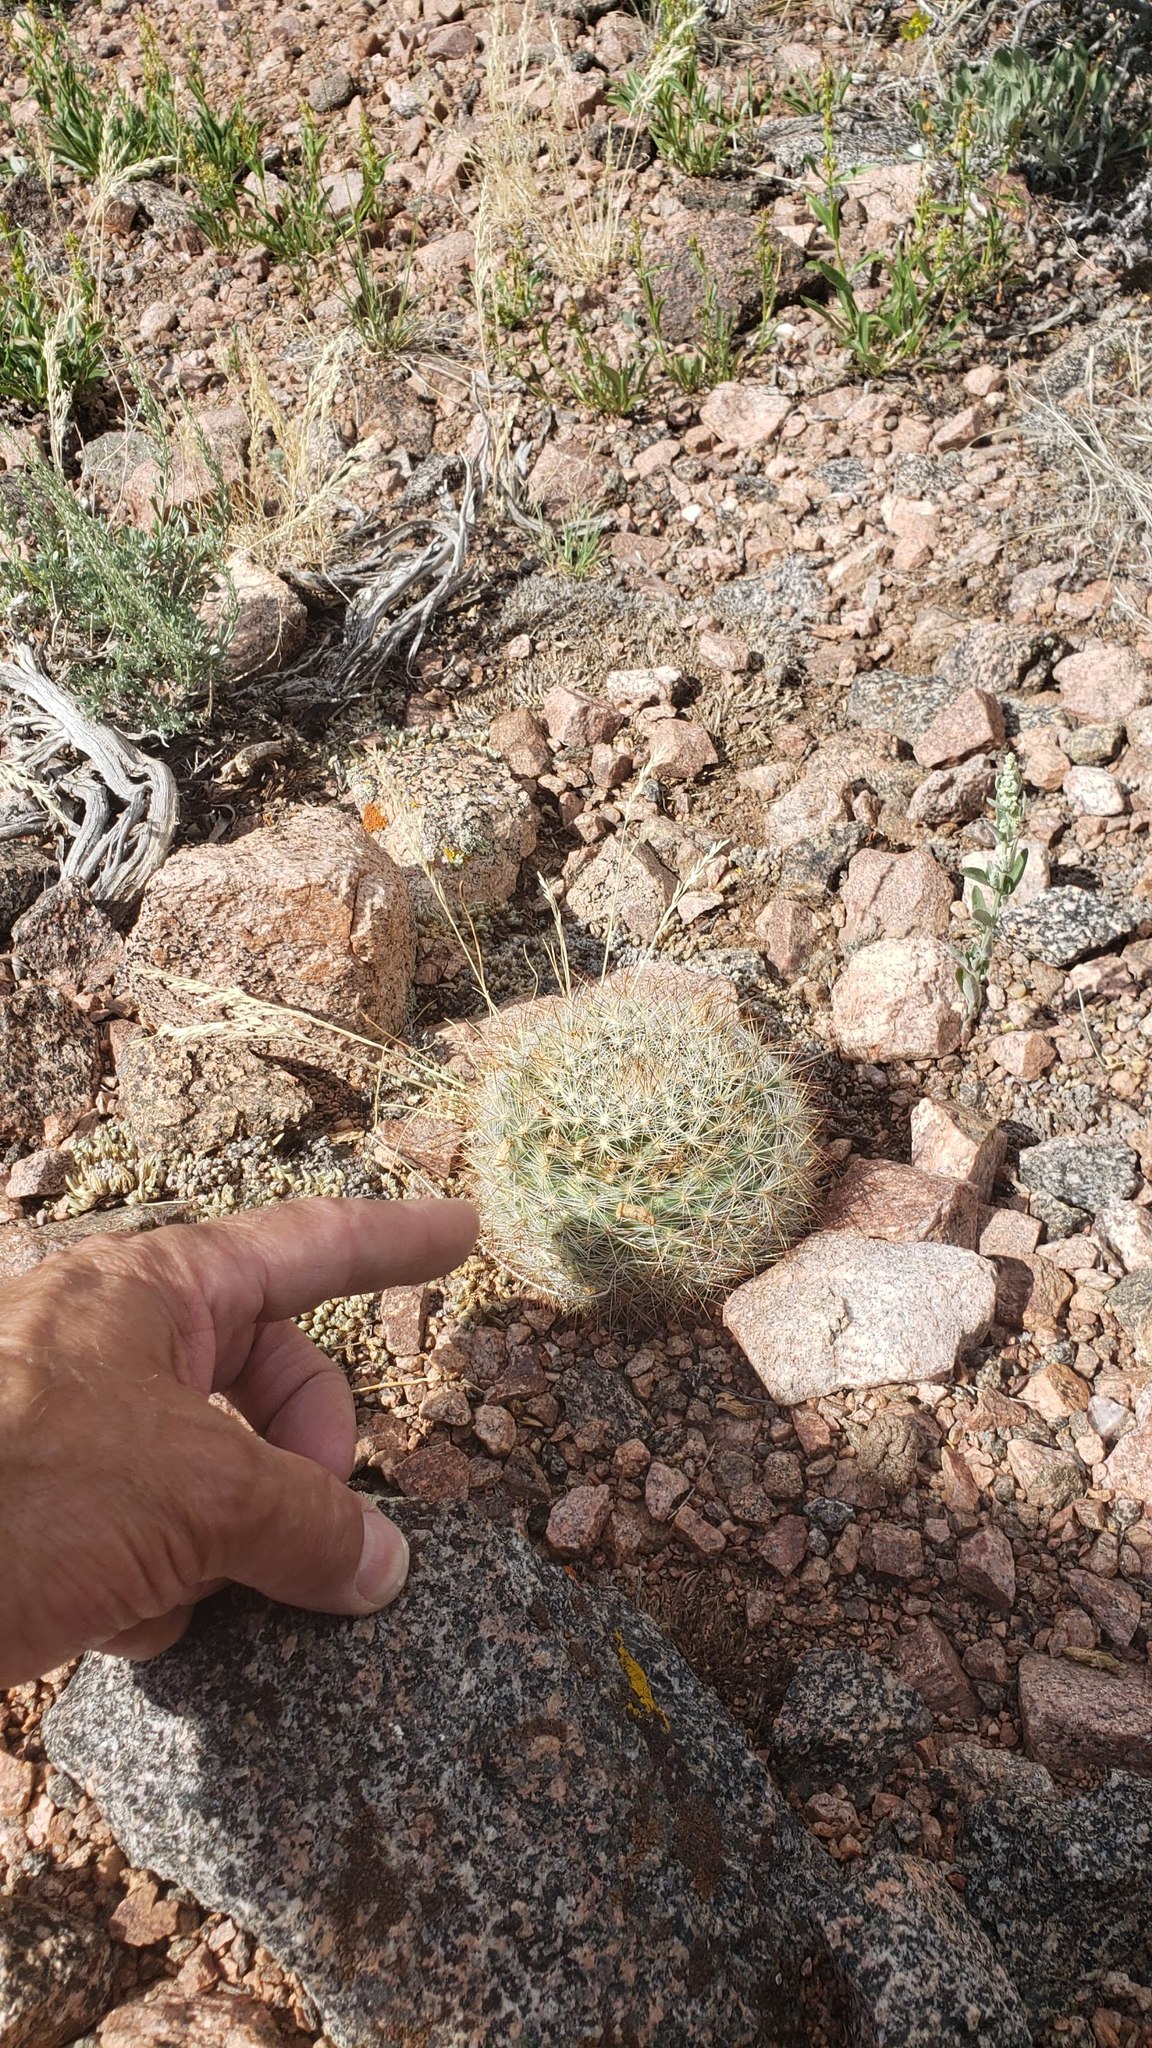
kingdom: Plantae
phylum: Tracheophyta
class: Magnoliopsida
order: Caryophyllales
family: Cactaceae
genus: Pediocactus
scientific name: Pediocactus simpsonii
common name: Simpson's hedgehog cactus
